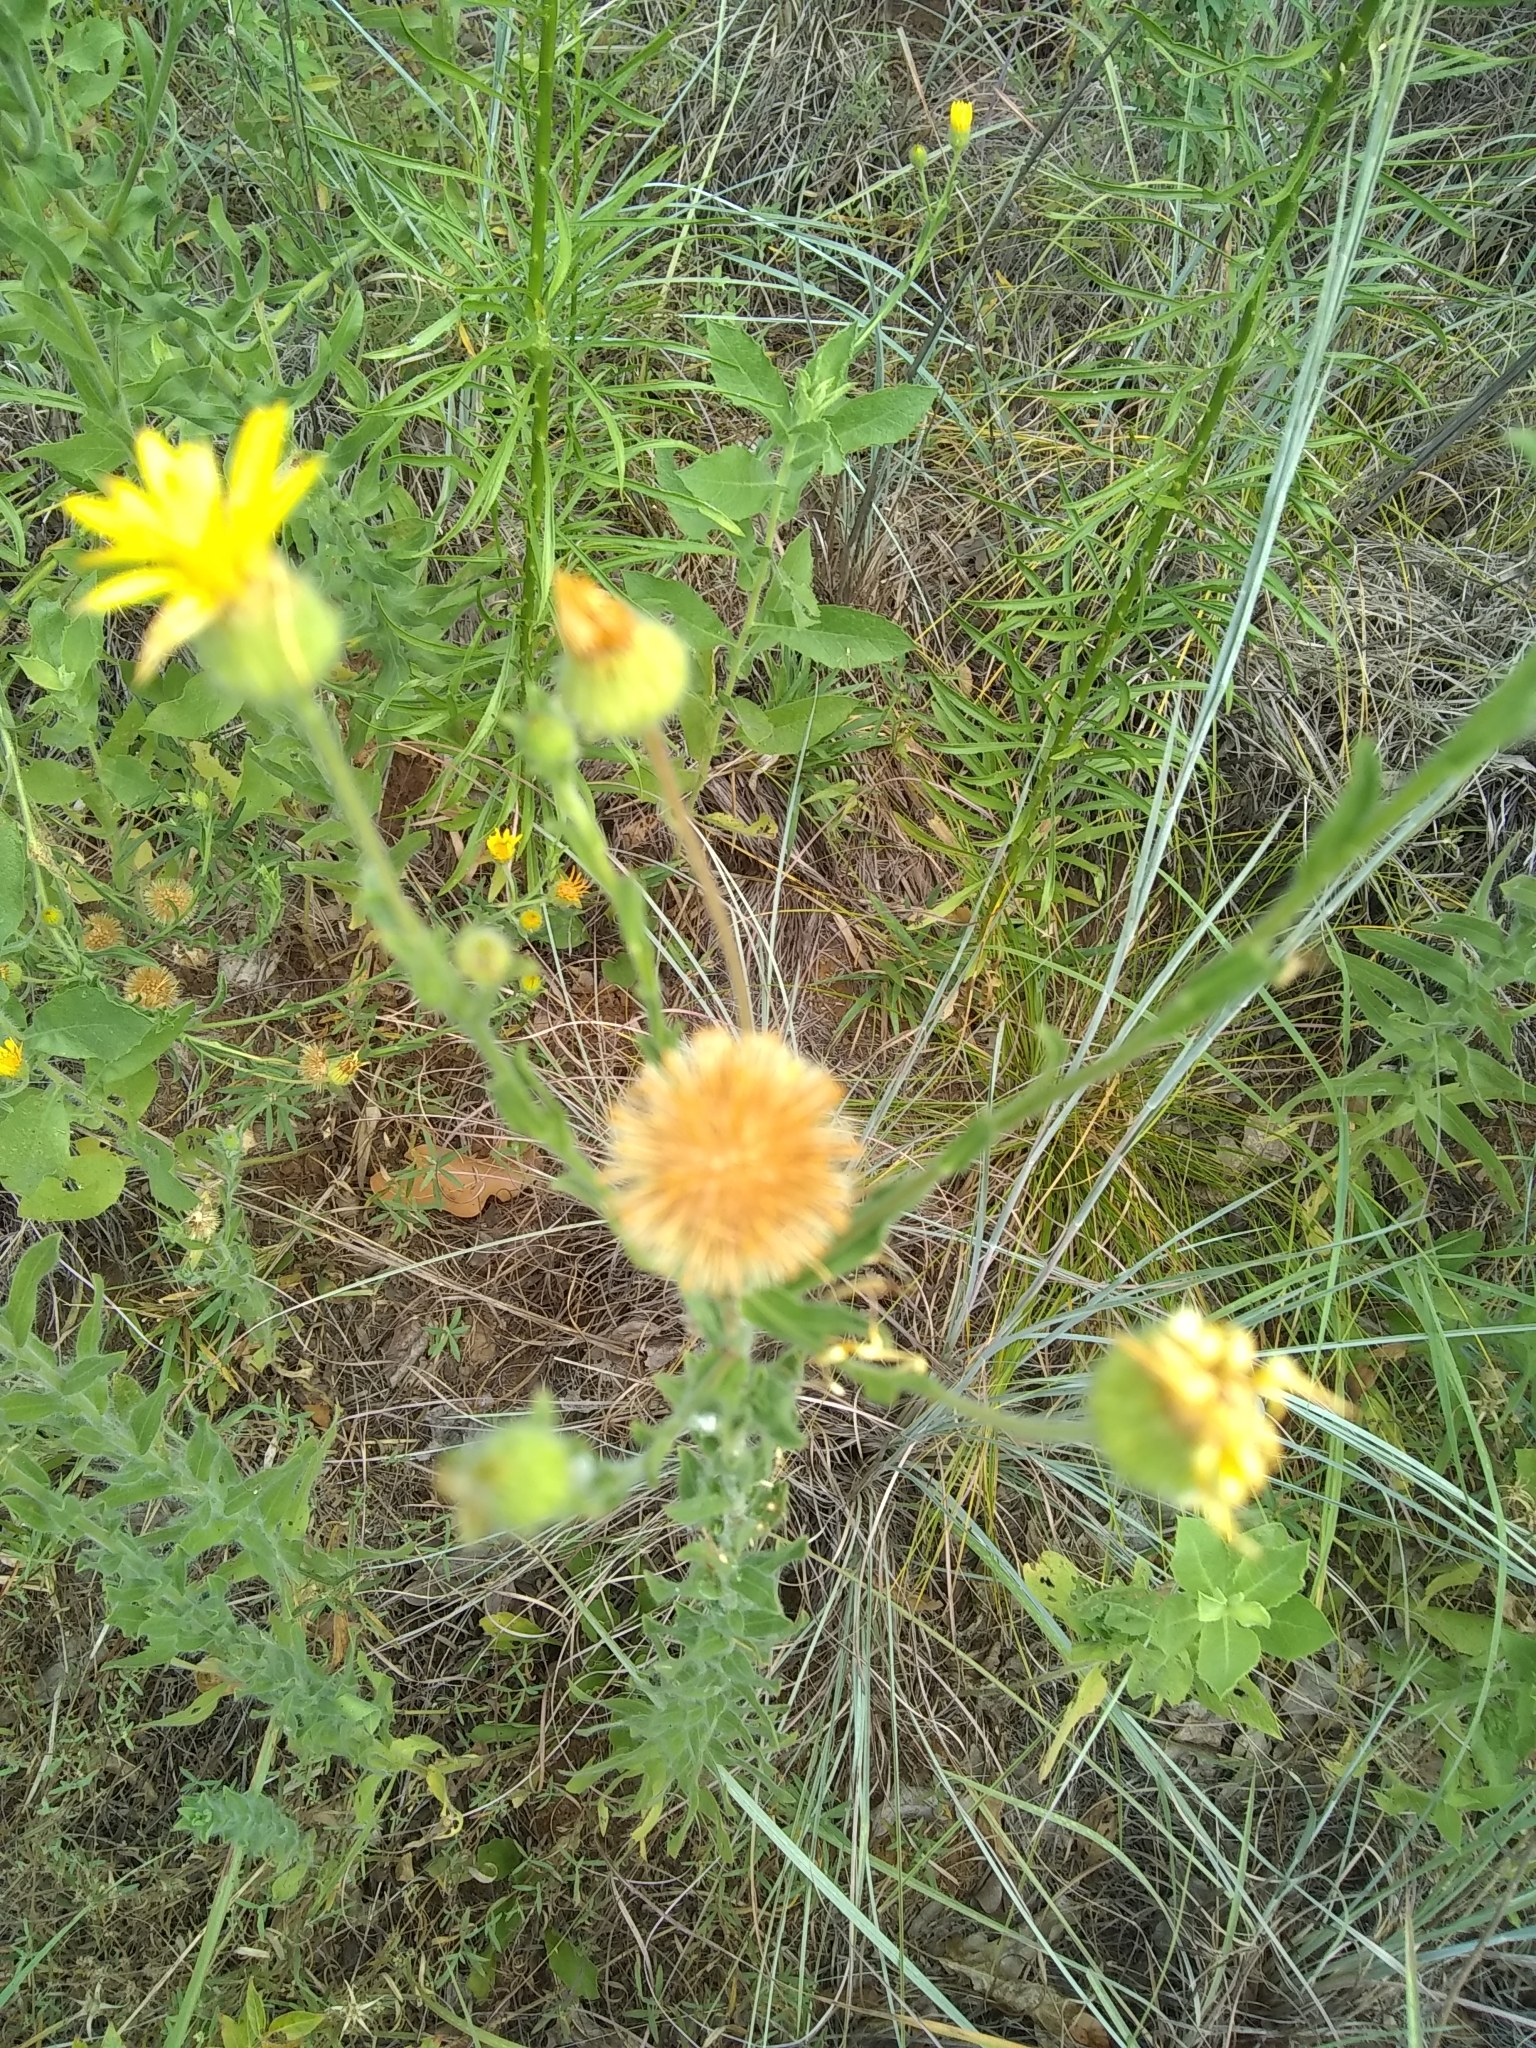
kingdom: Plantae
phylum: Tracheophyta
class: Magnoliopsida
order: Asterales
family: Asteraceae
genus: Bradburia
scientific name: Bradburia pilosa
